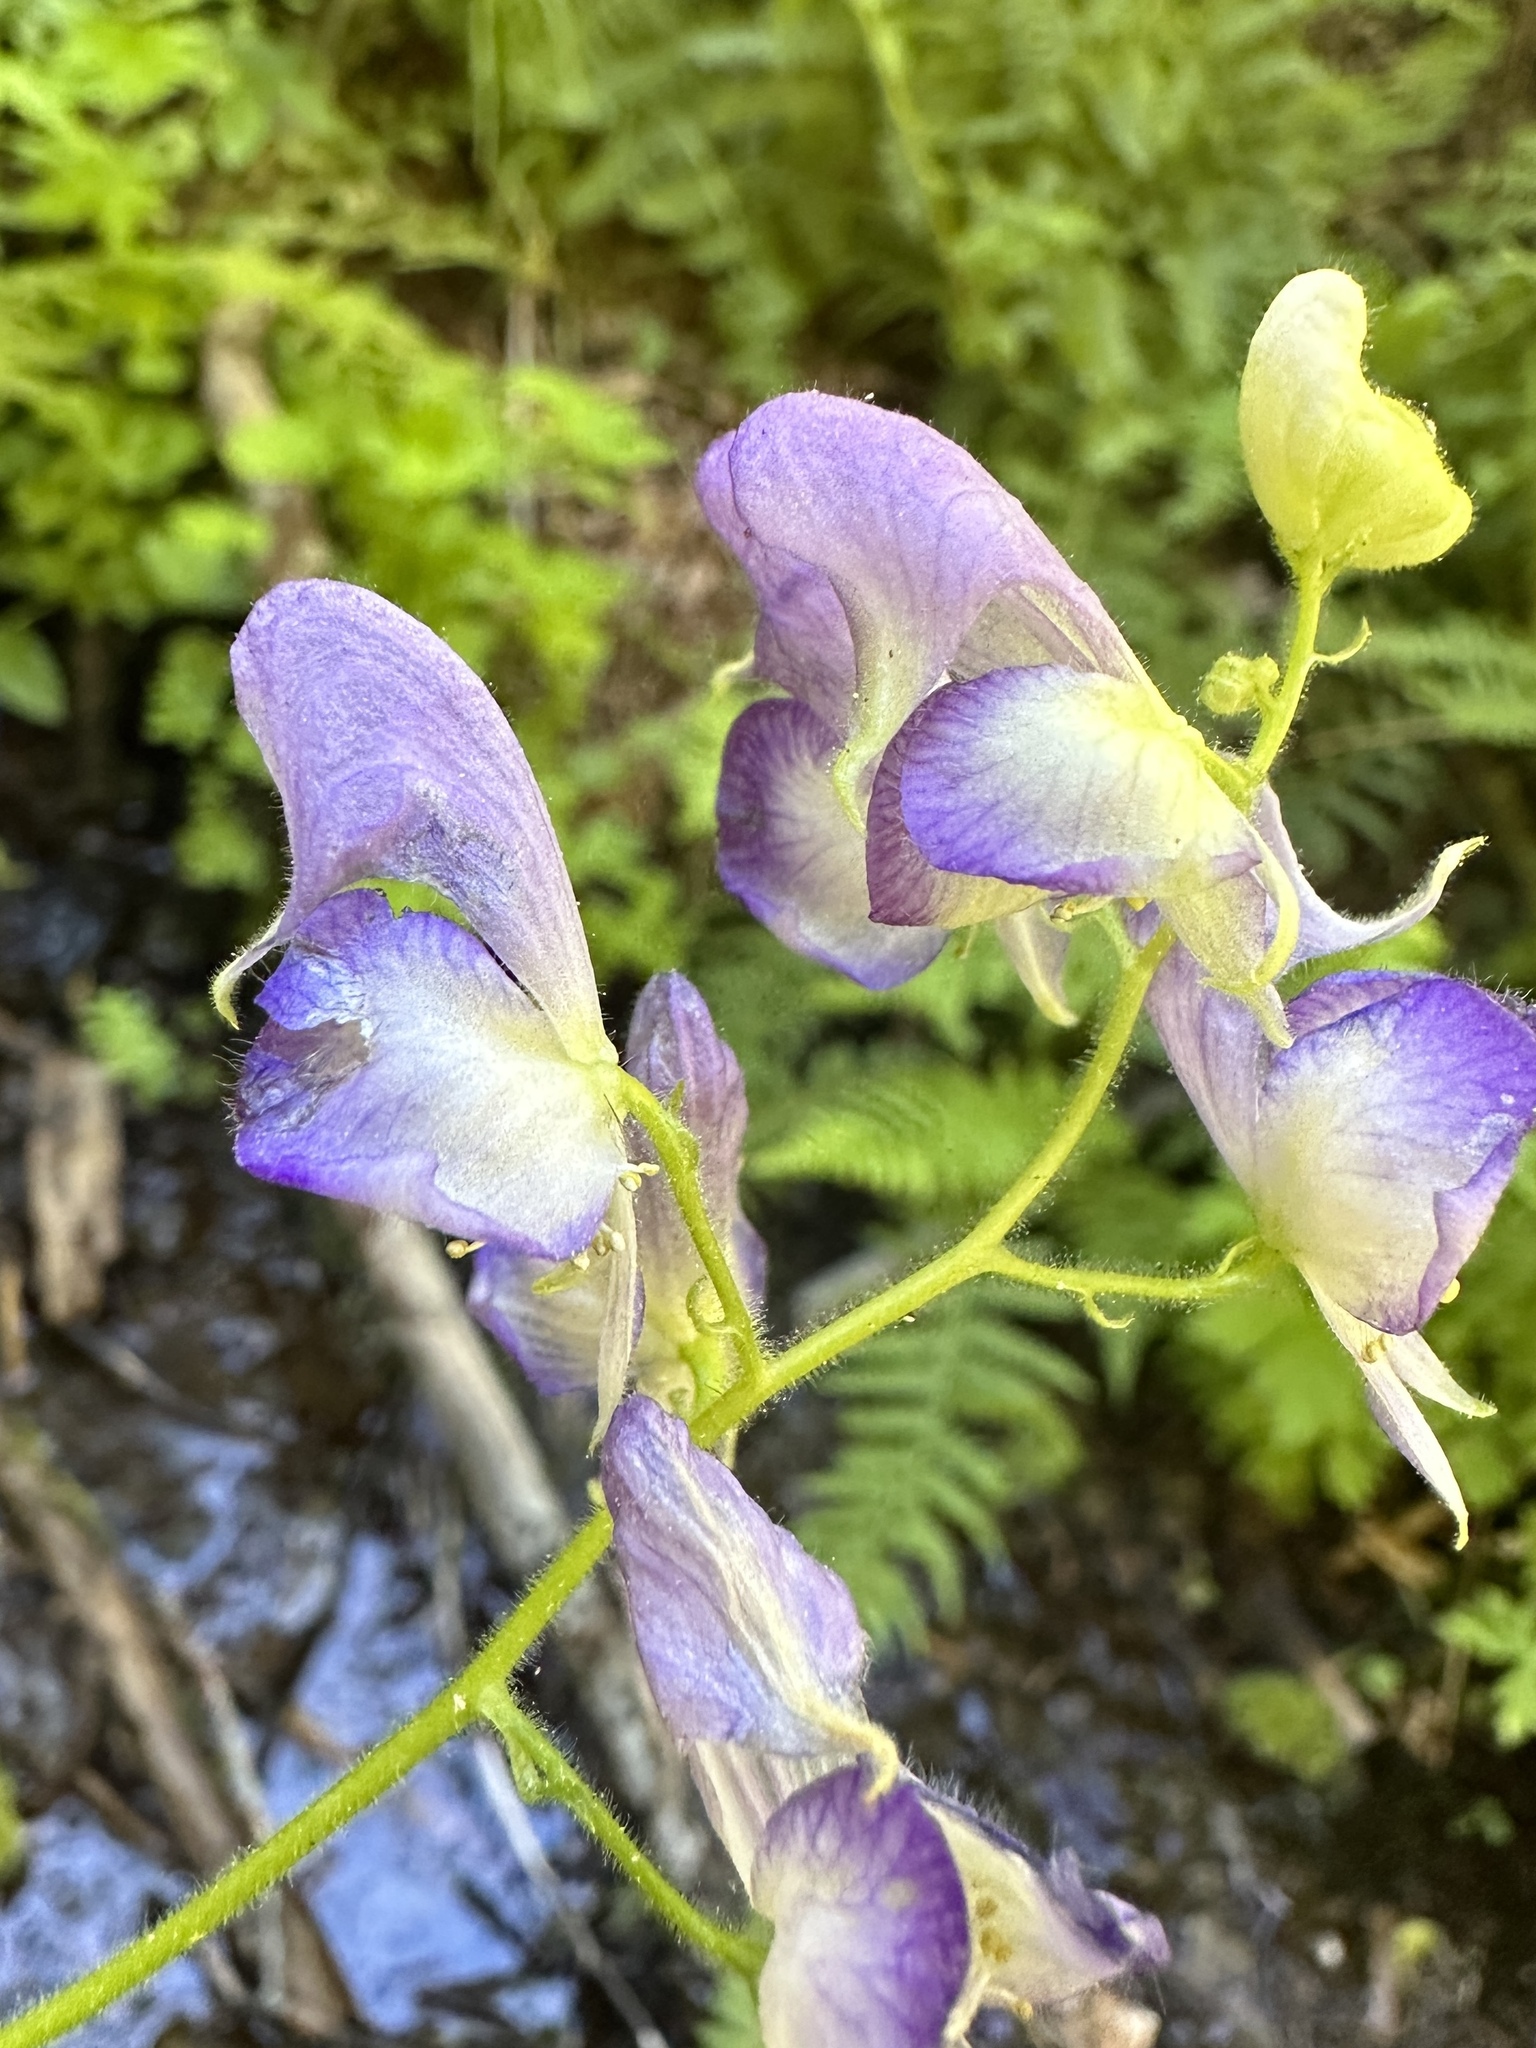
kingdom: Plantae
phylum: Tracheophyta
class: Magnoliopsida
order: Ranunculales
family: Ranunculaceae
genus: Aconitum
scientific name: Aconitum columbianum
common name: Columbia aconite
